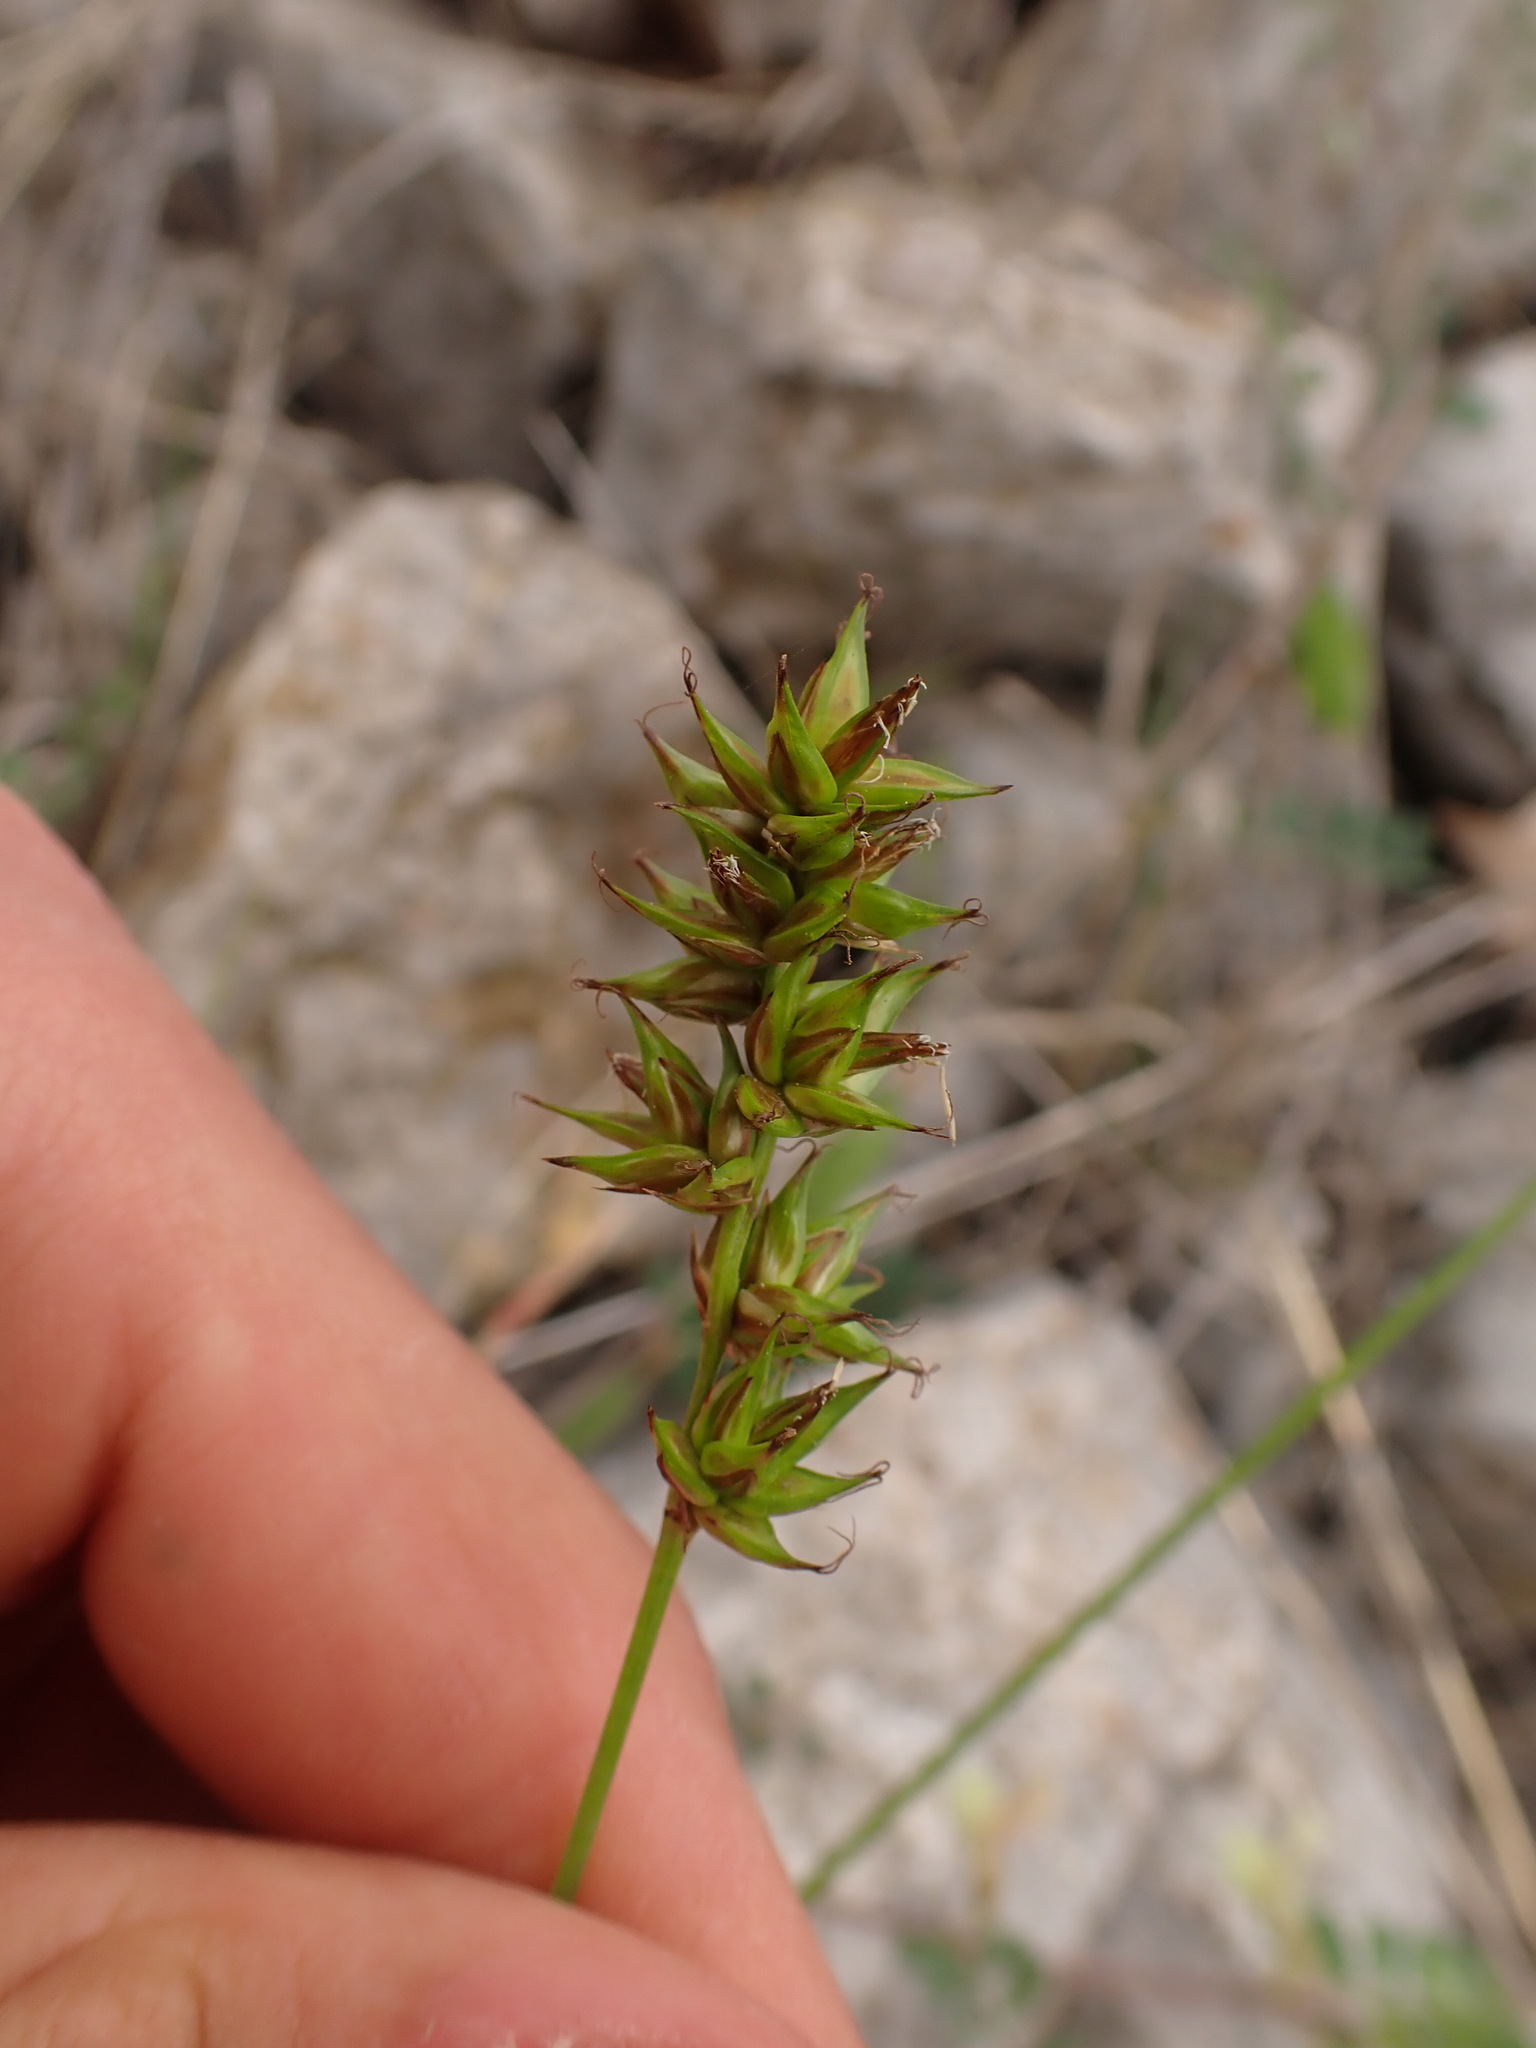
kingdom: Plantae
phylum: Tracheophyta
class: Liliopsida
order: Poales
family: Cyperaceae
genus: Carex
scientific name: Carex spicata
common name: Spiked sedge
